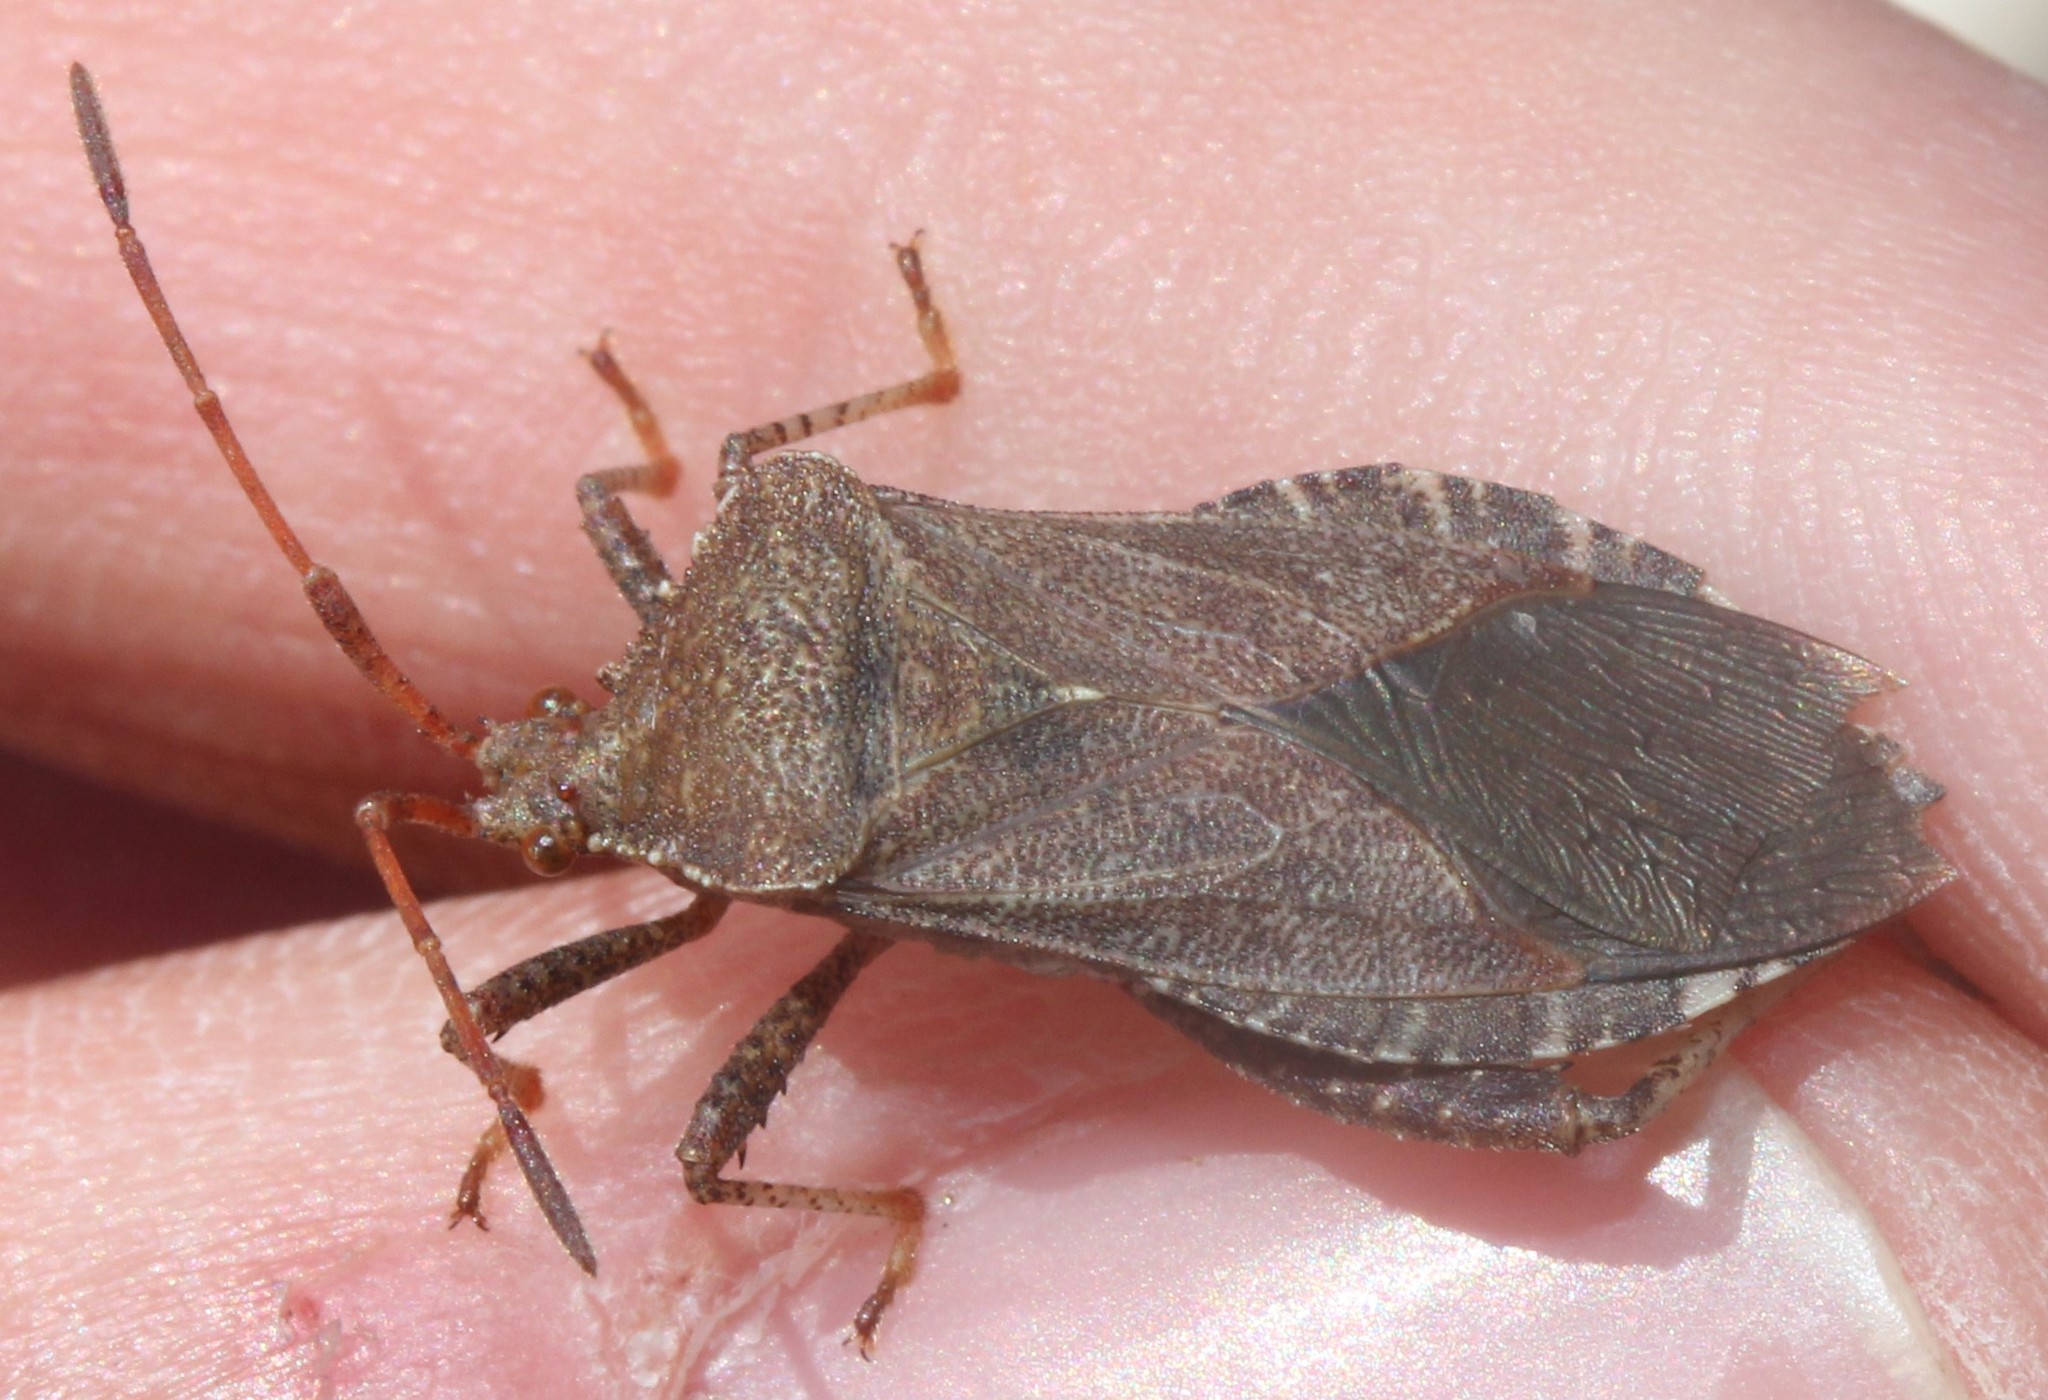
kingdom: Animalia
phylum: Arthropoda
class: Insecta
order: Hemiptera
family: Coreidae
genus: Euthochtha
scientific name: Euthochtha galeator
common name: Helmeted squash bug
